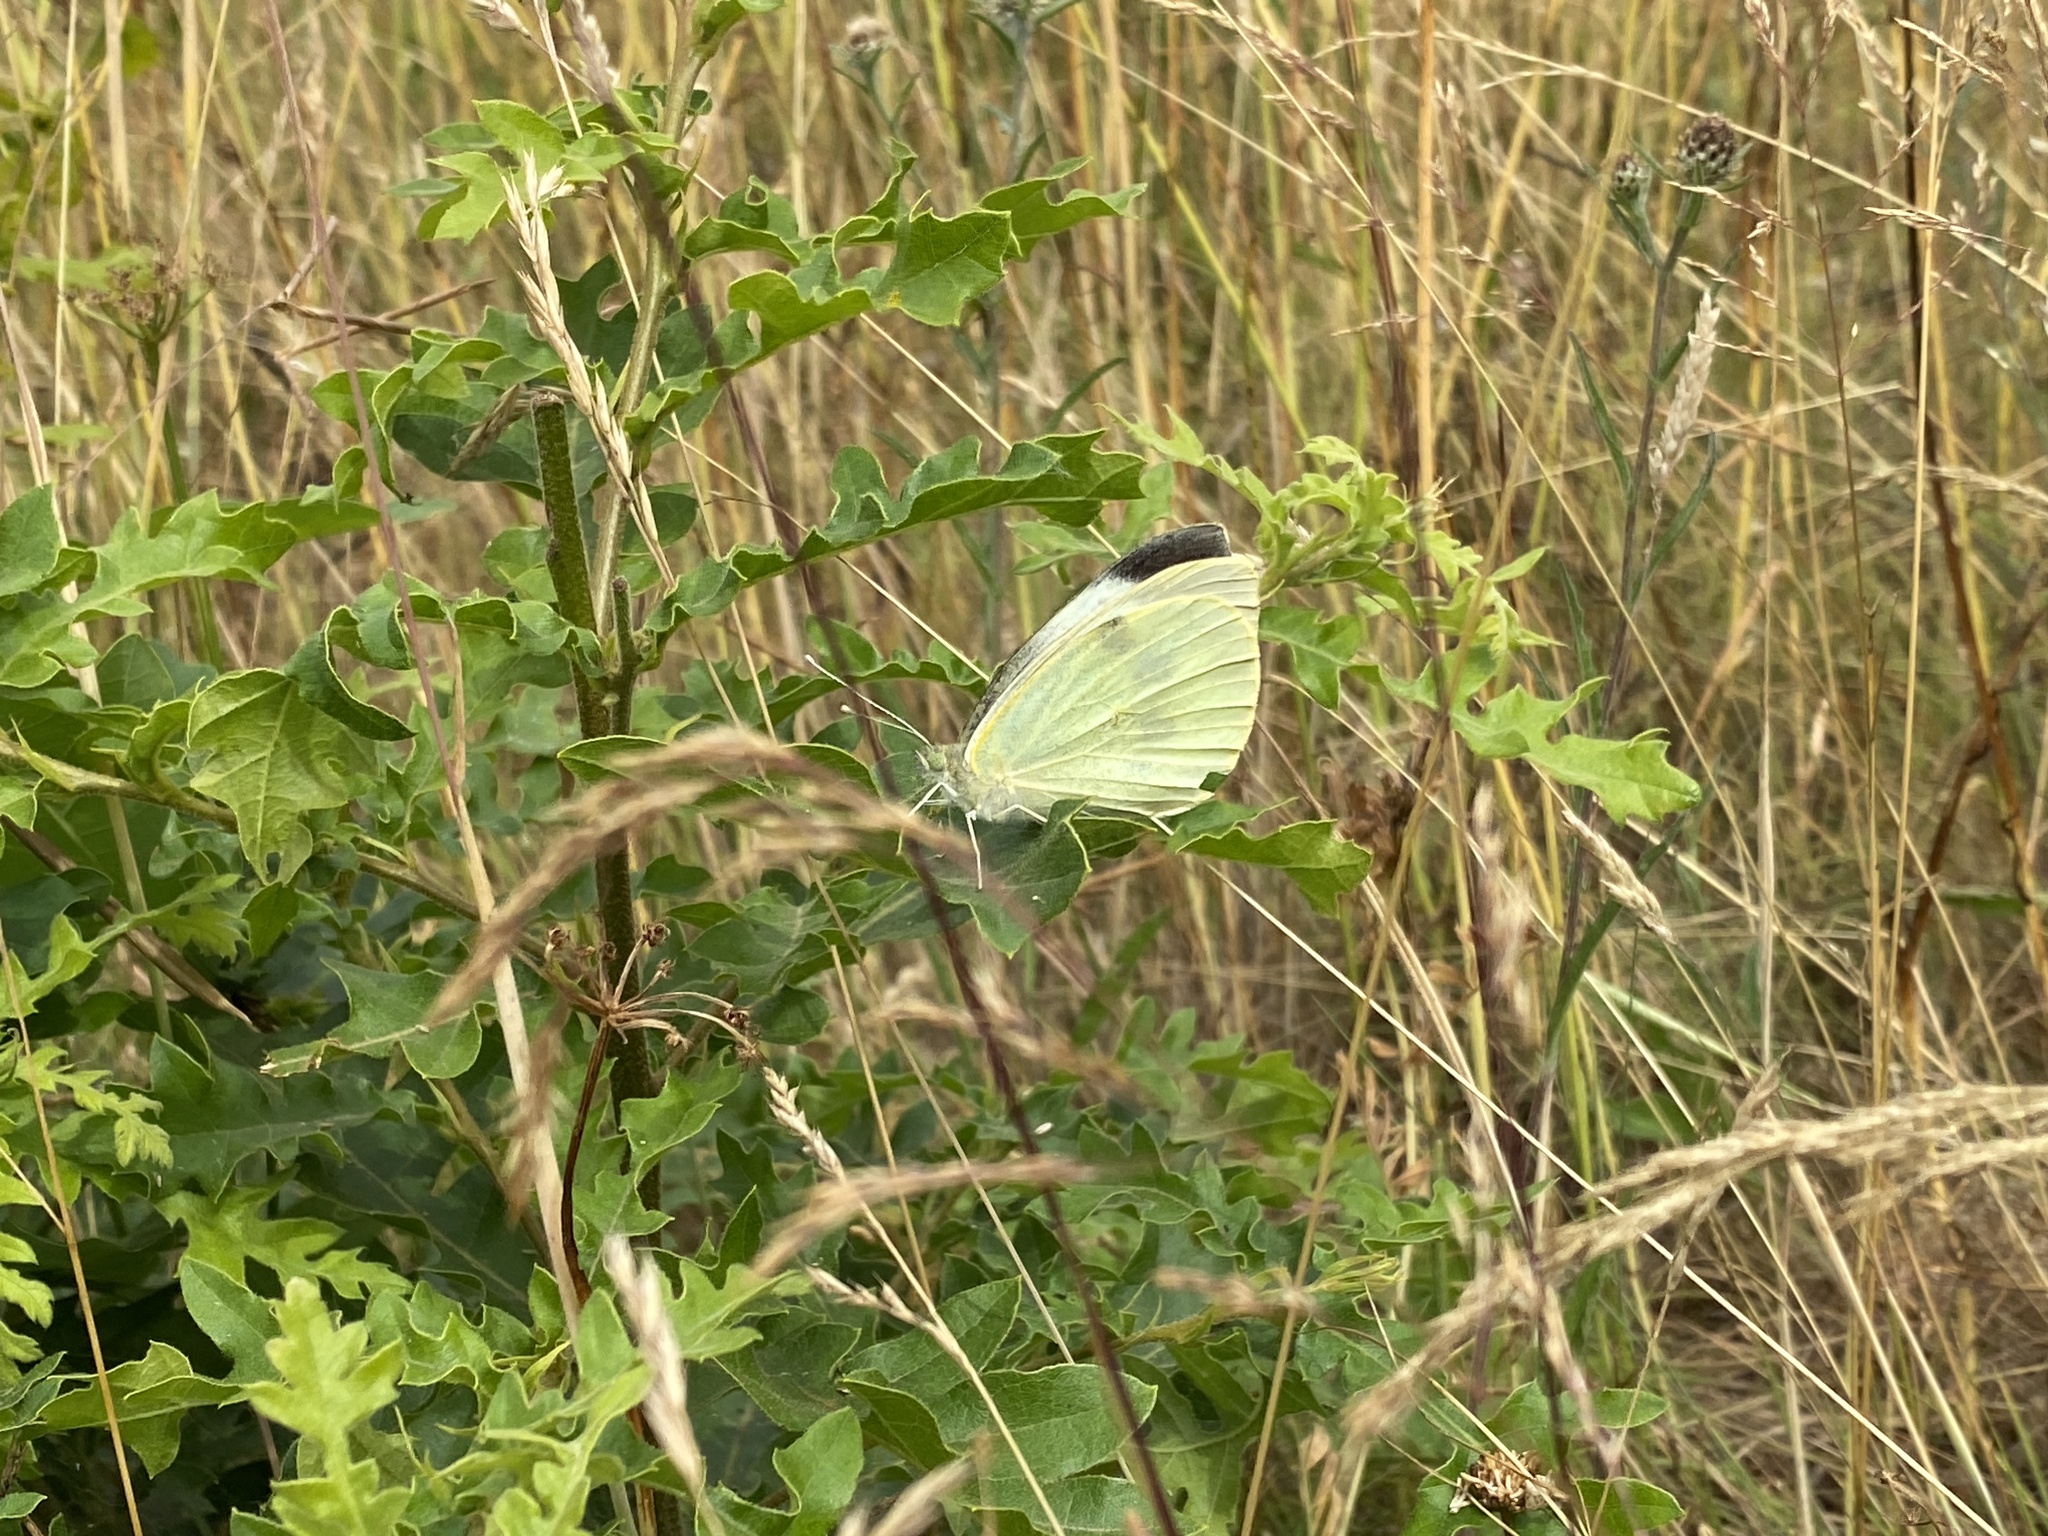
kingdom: Animalia
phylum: Arthropoda
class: Insecta
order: Lepidoptera
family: Pieridae
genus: Pieris
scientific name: Pieris brassicae
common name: Large white
